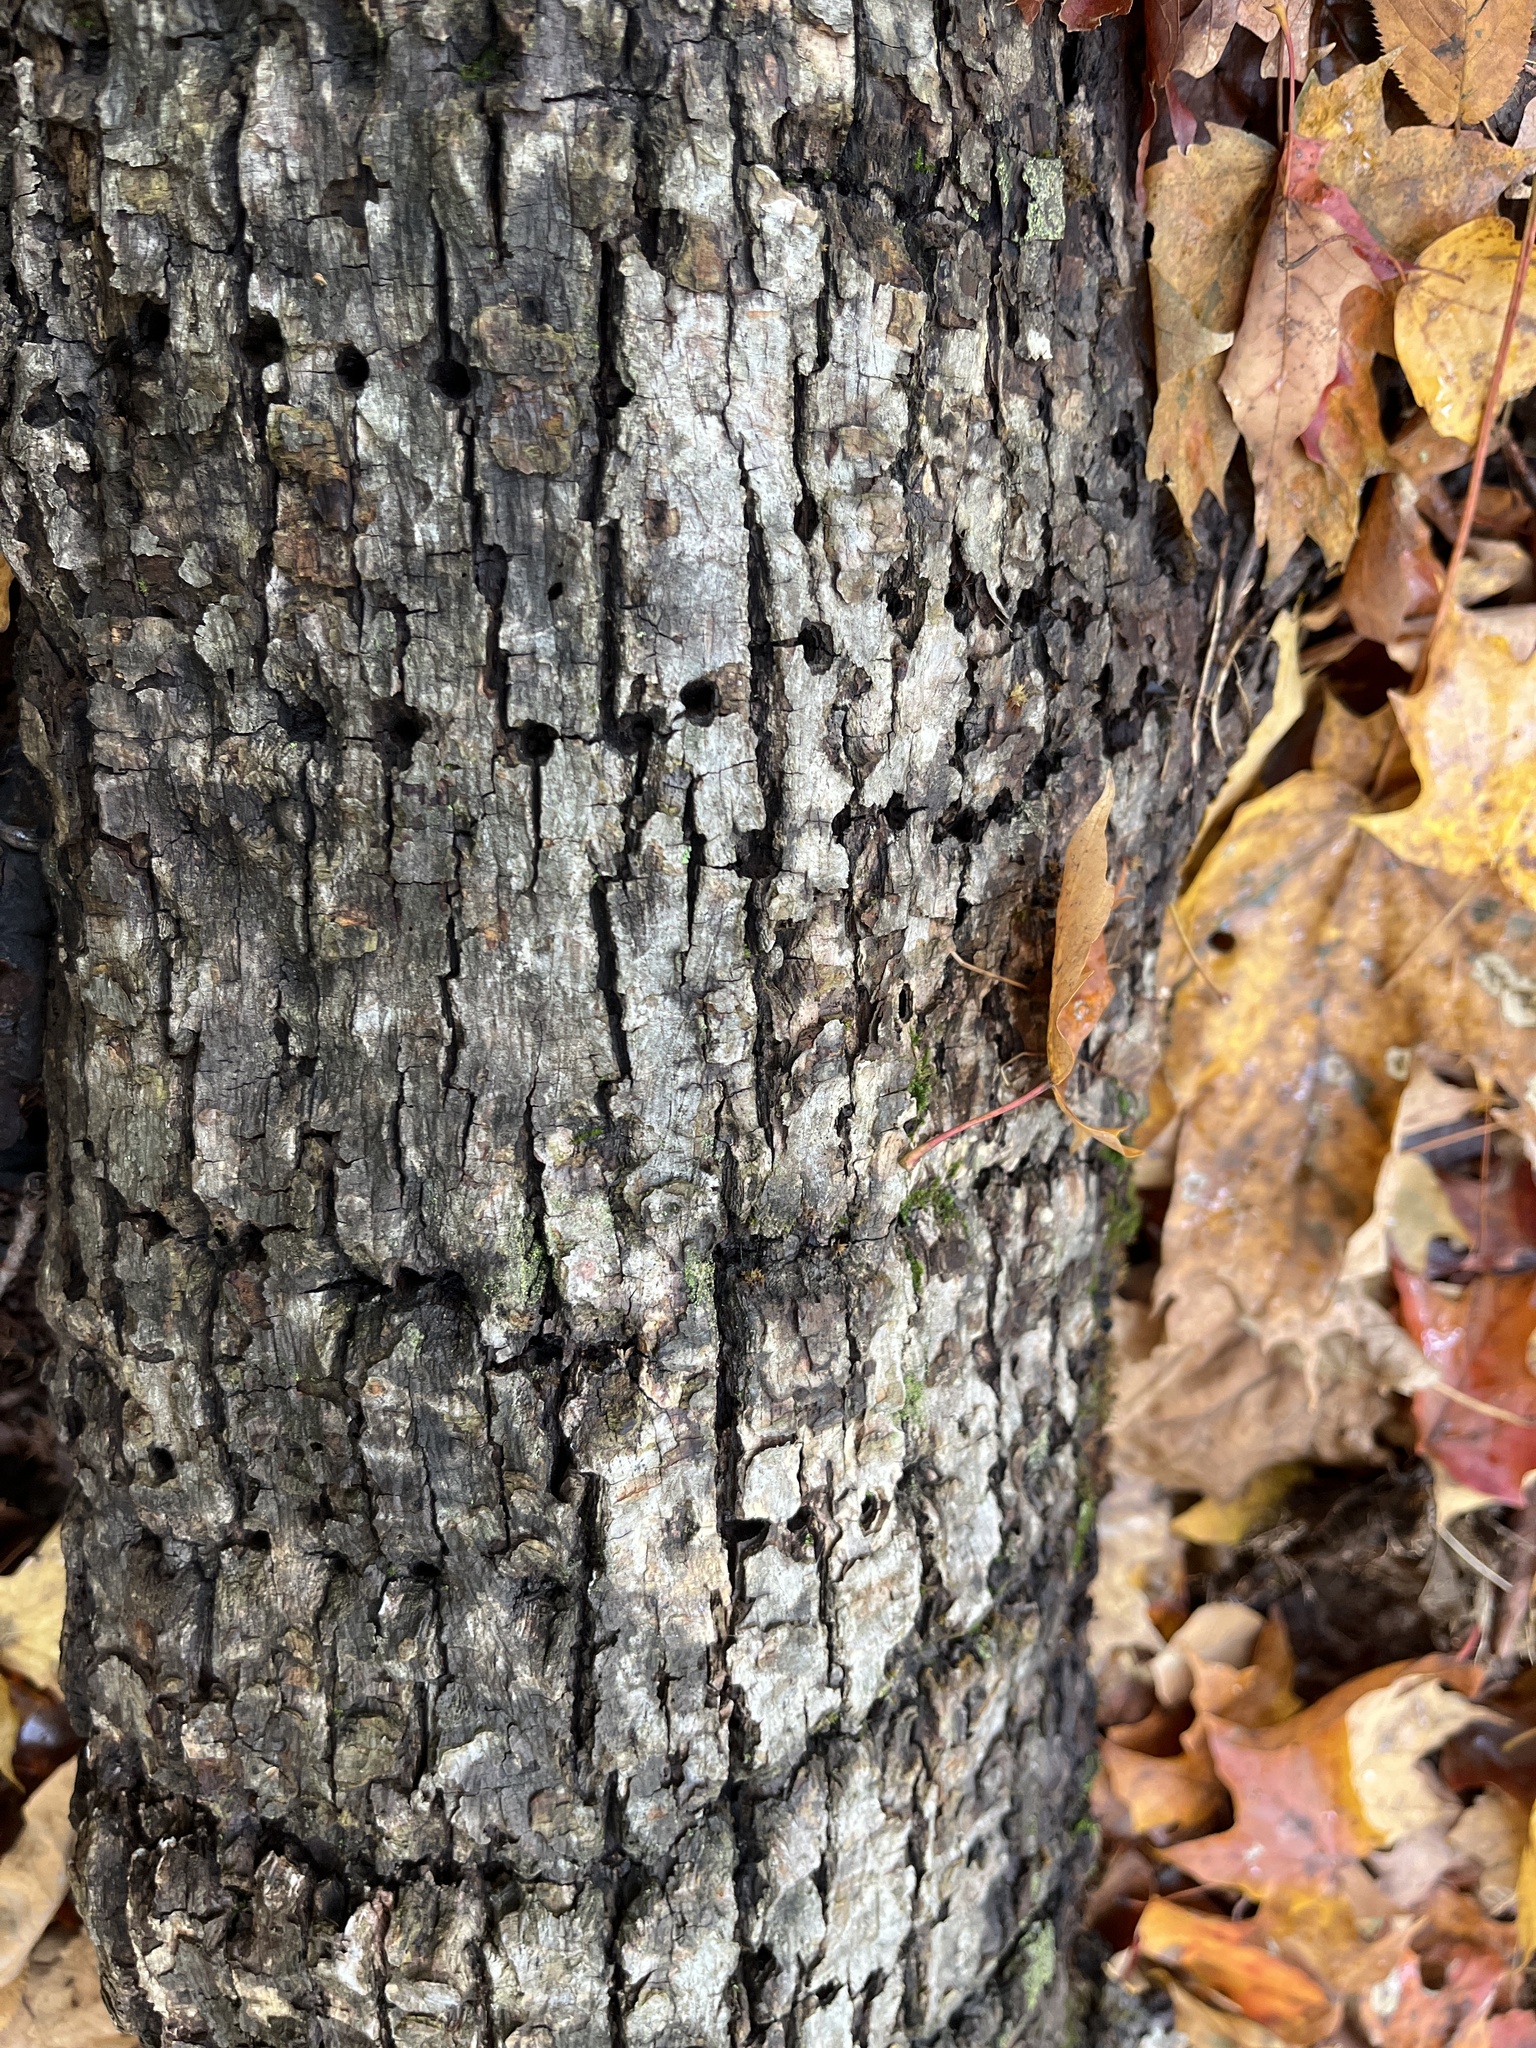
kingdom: Animalia
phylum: Chordata
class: Aves
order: Piciformes
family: Picidae
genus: Sphyrapicus
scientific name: Sphyrapicus varius
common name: Yellow-bellied sapsucker
